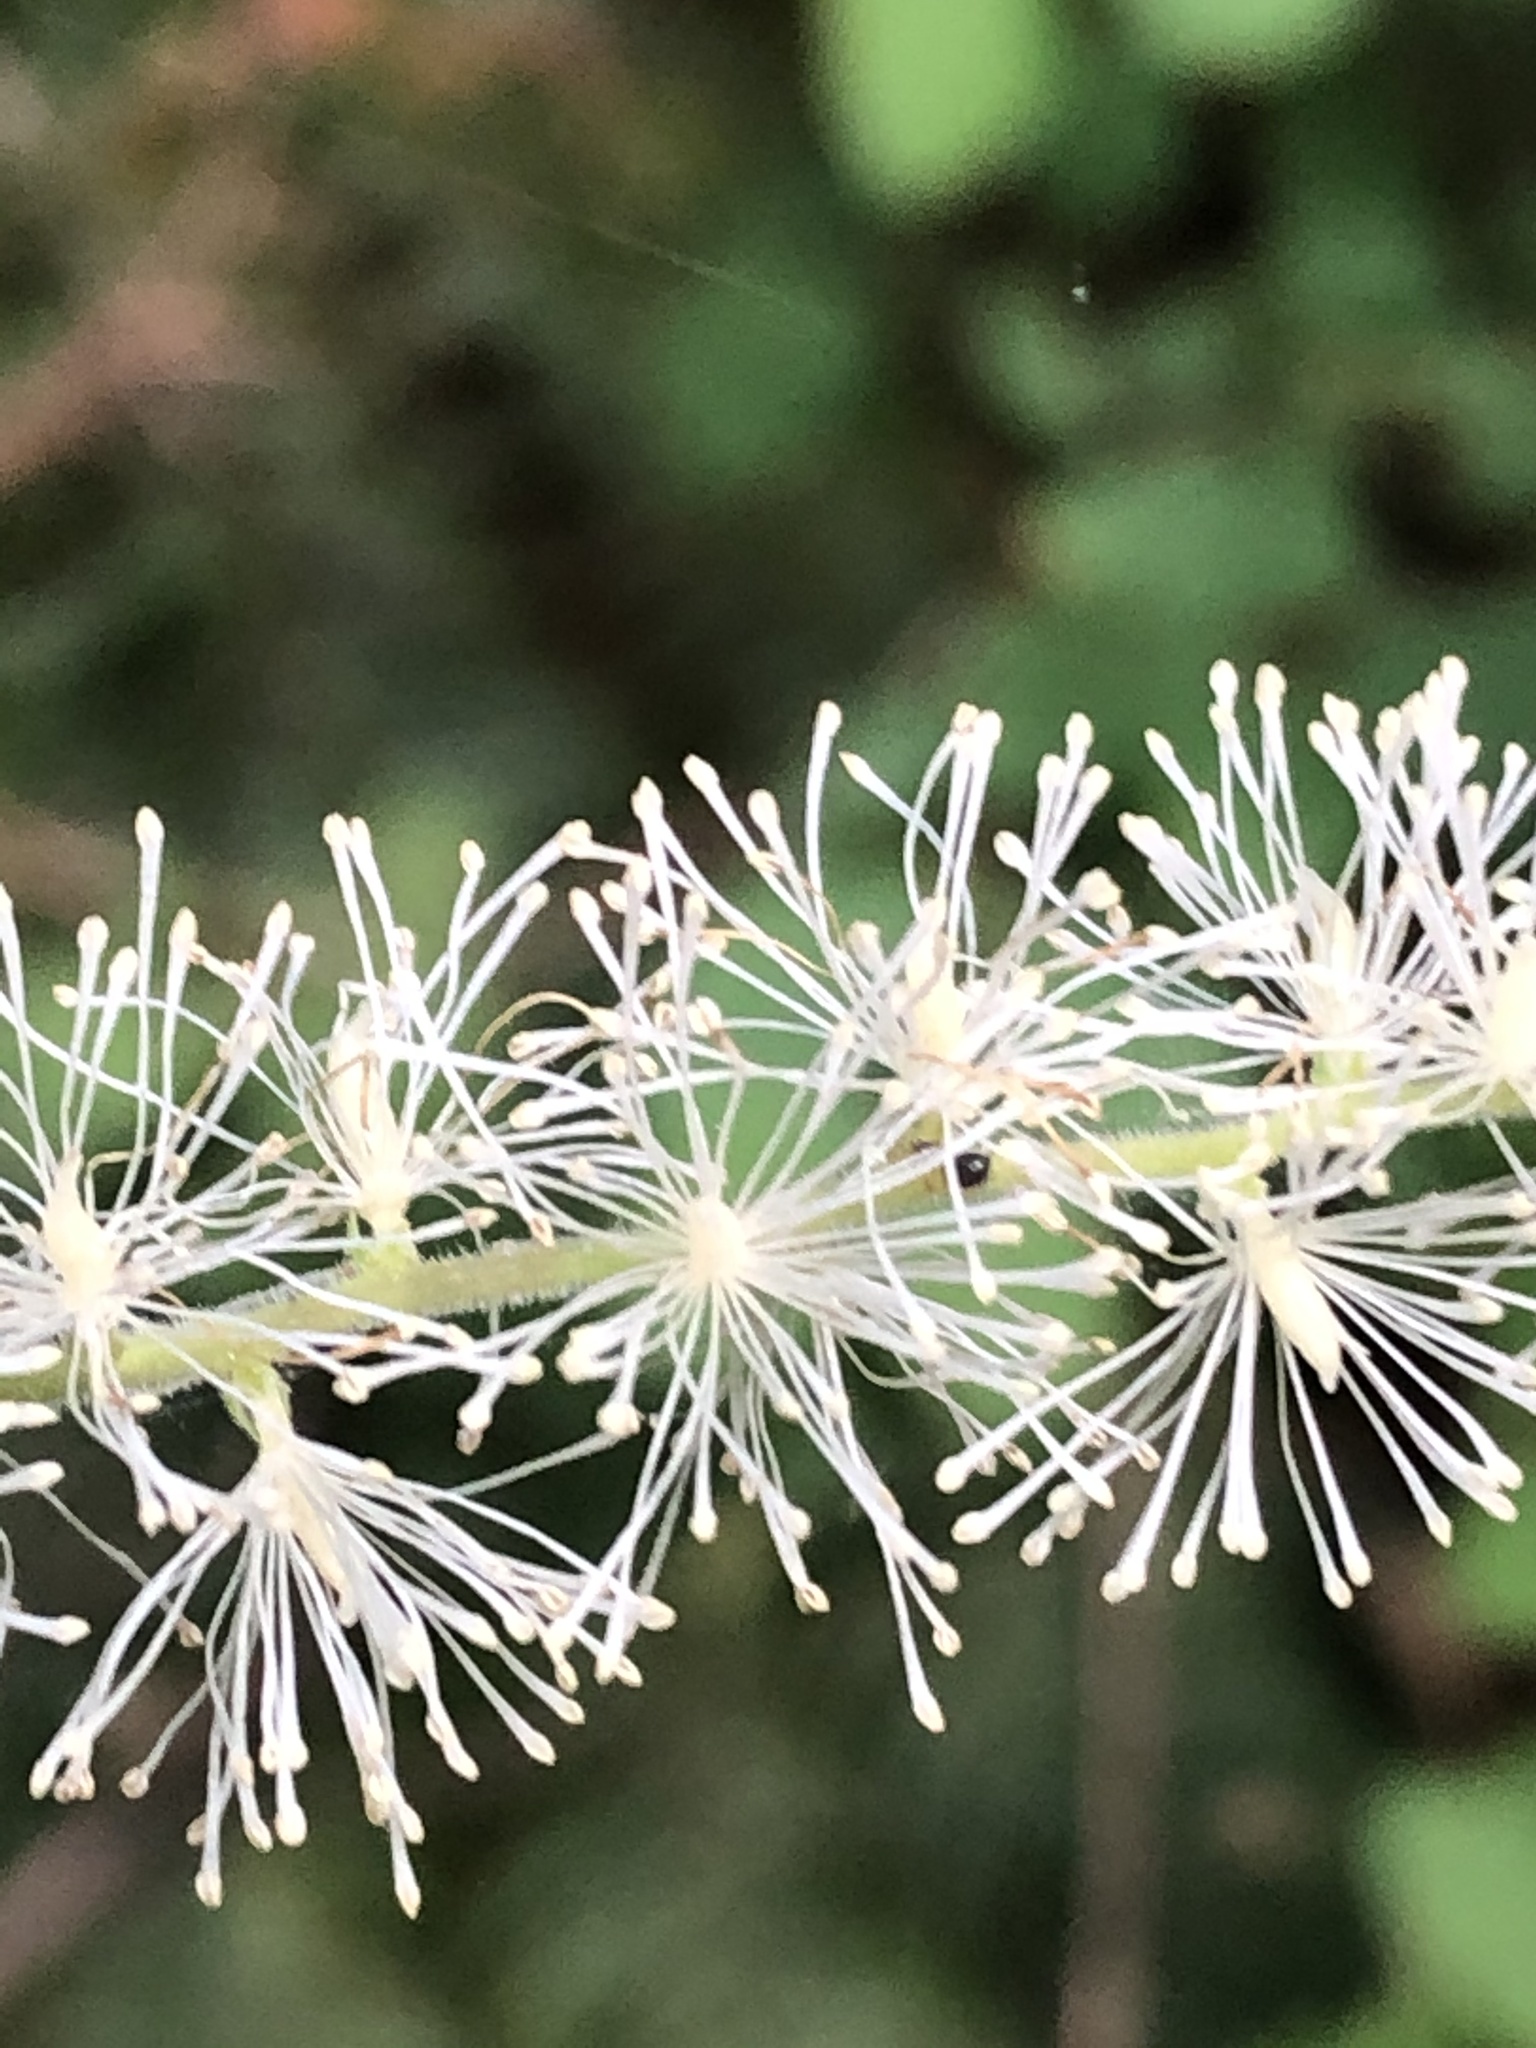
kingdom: Plantae
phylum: Tracheophyta
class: Magnoliopsida
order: Ranunculales
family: Ranunculaceae
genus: Actaea
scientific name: Actaea elata
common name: Tall bugbane
